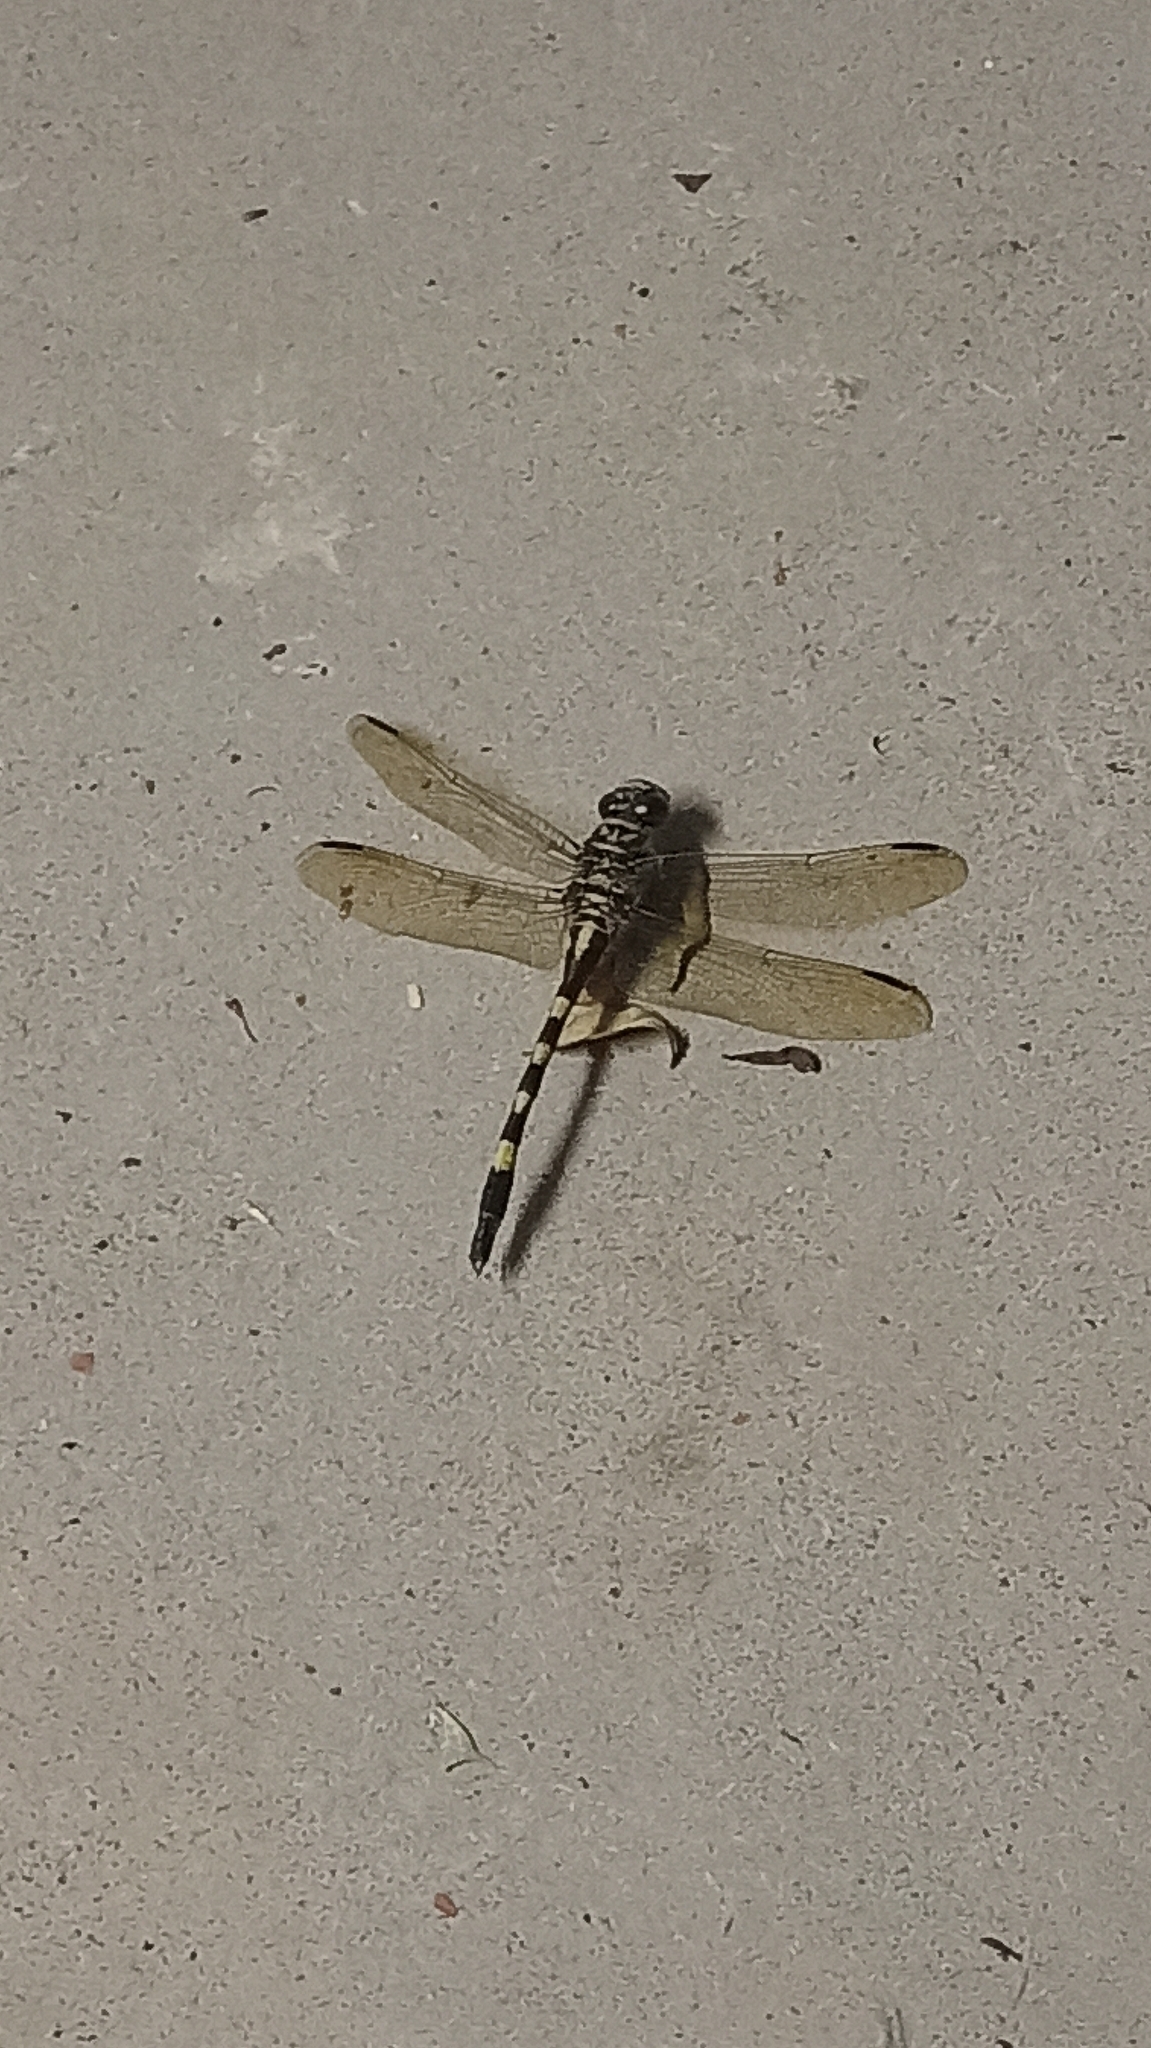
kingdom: Animalia
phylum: Arthropoda
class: Insecta
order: Odonata
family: Gomphidae
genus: Sinictinogomphus
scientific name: Sinictinogomphus clavatus
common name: Golden flangetail
